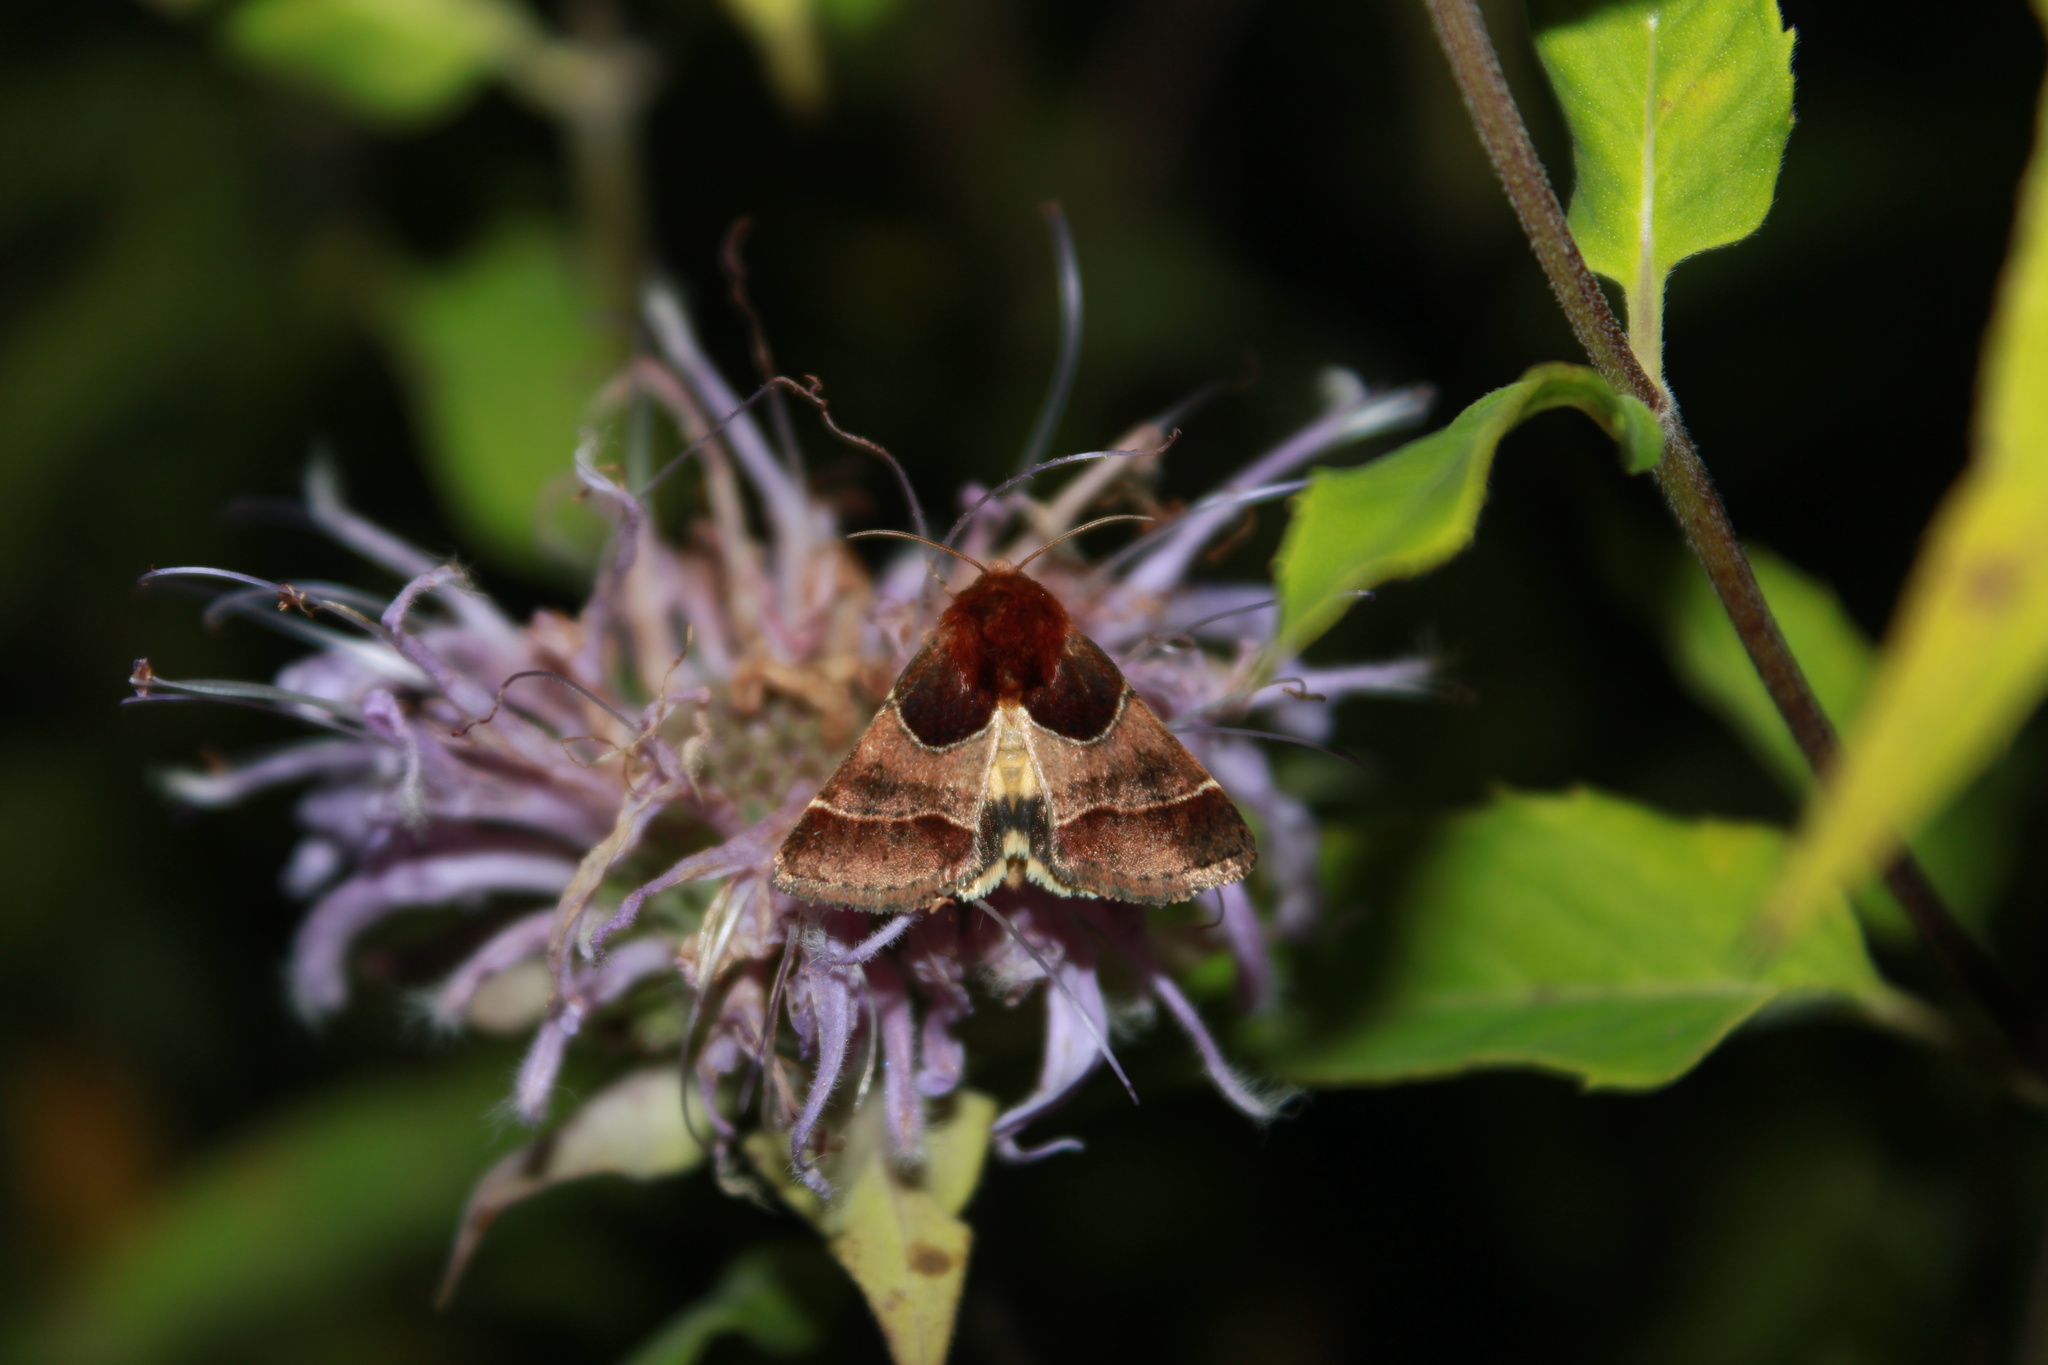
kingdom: Animalia
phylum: Arthropoda
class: Insecta
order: Lepidoptera
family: Noctuidae
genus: Schinia
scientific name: Schinia arcigera
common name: Arcigera flower moth
